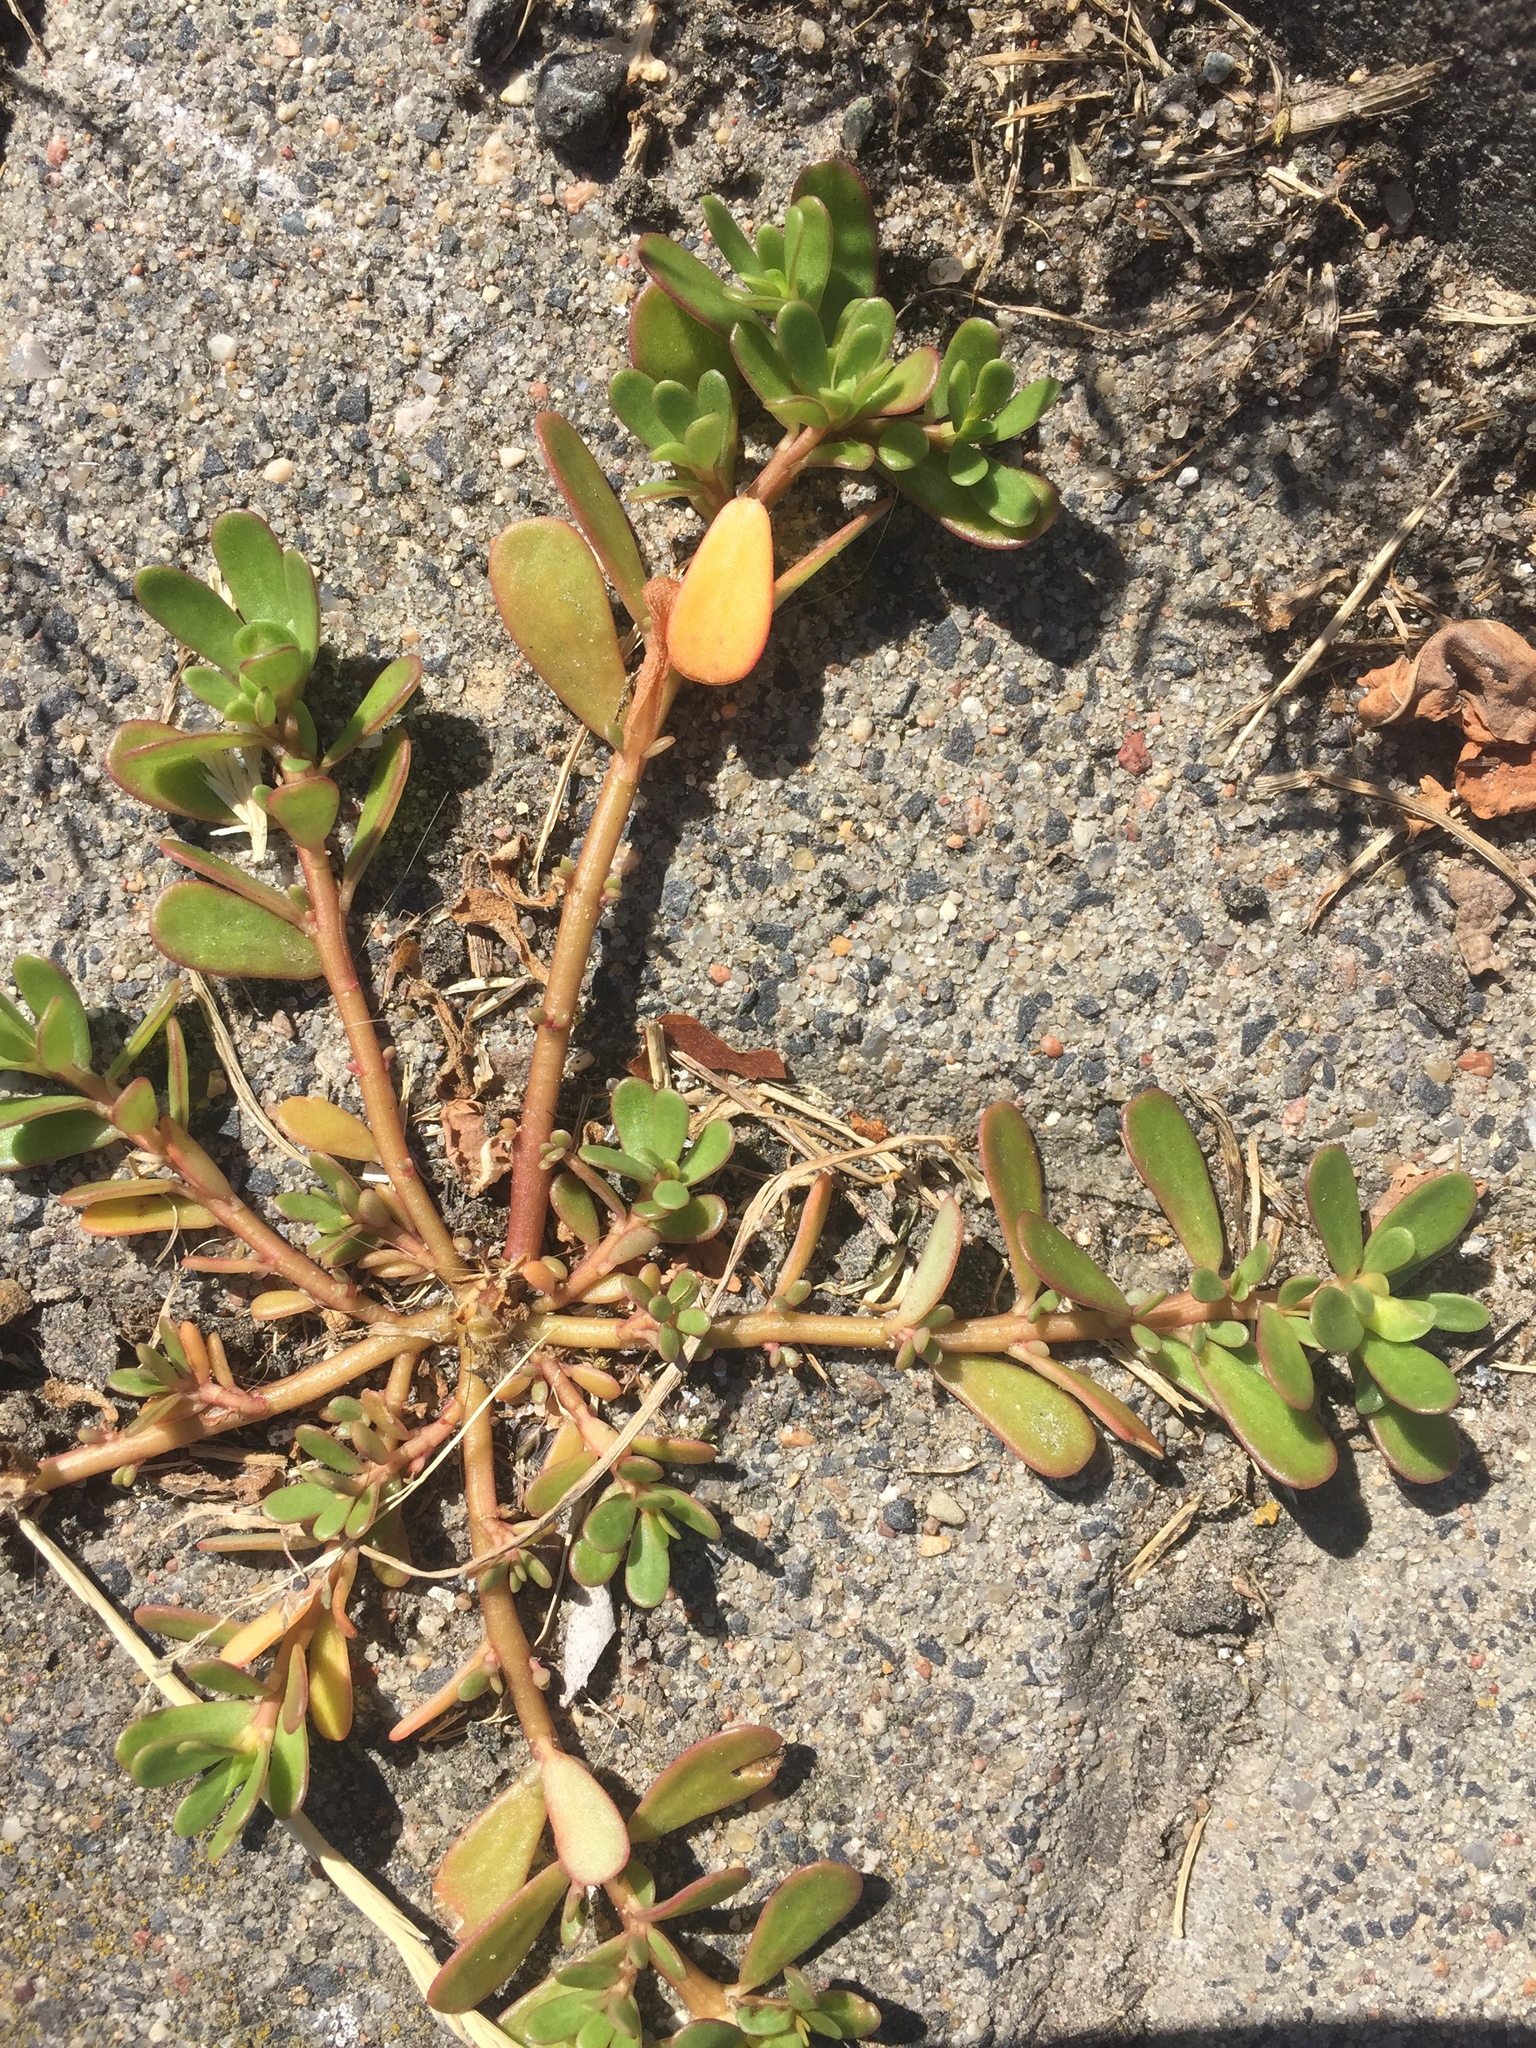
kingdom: Plantae
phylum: Tracheophyta
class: Magnoliopsida
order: Caryophyllales
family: Portulacaceae
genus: Portulaca
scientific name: Portulaca oleracea
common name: Common purslane
